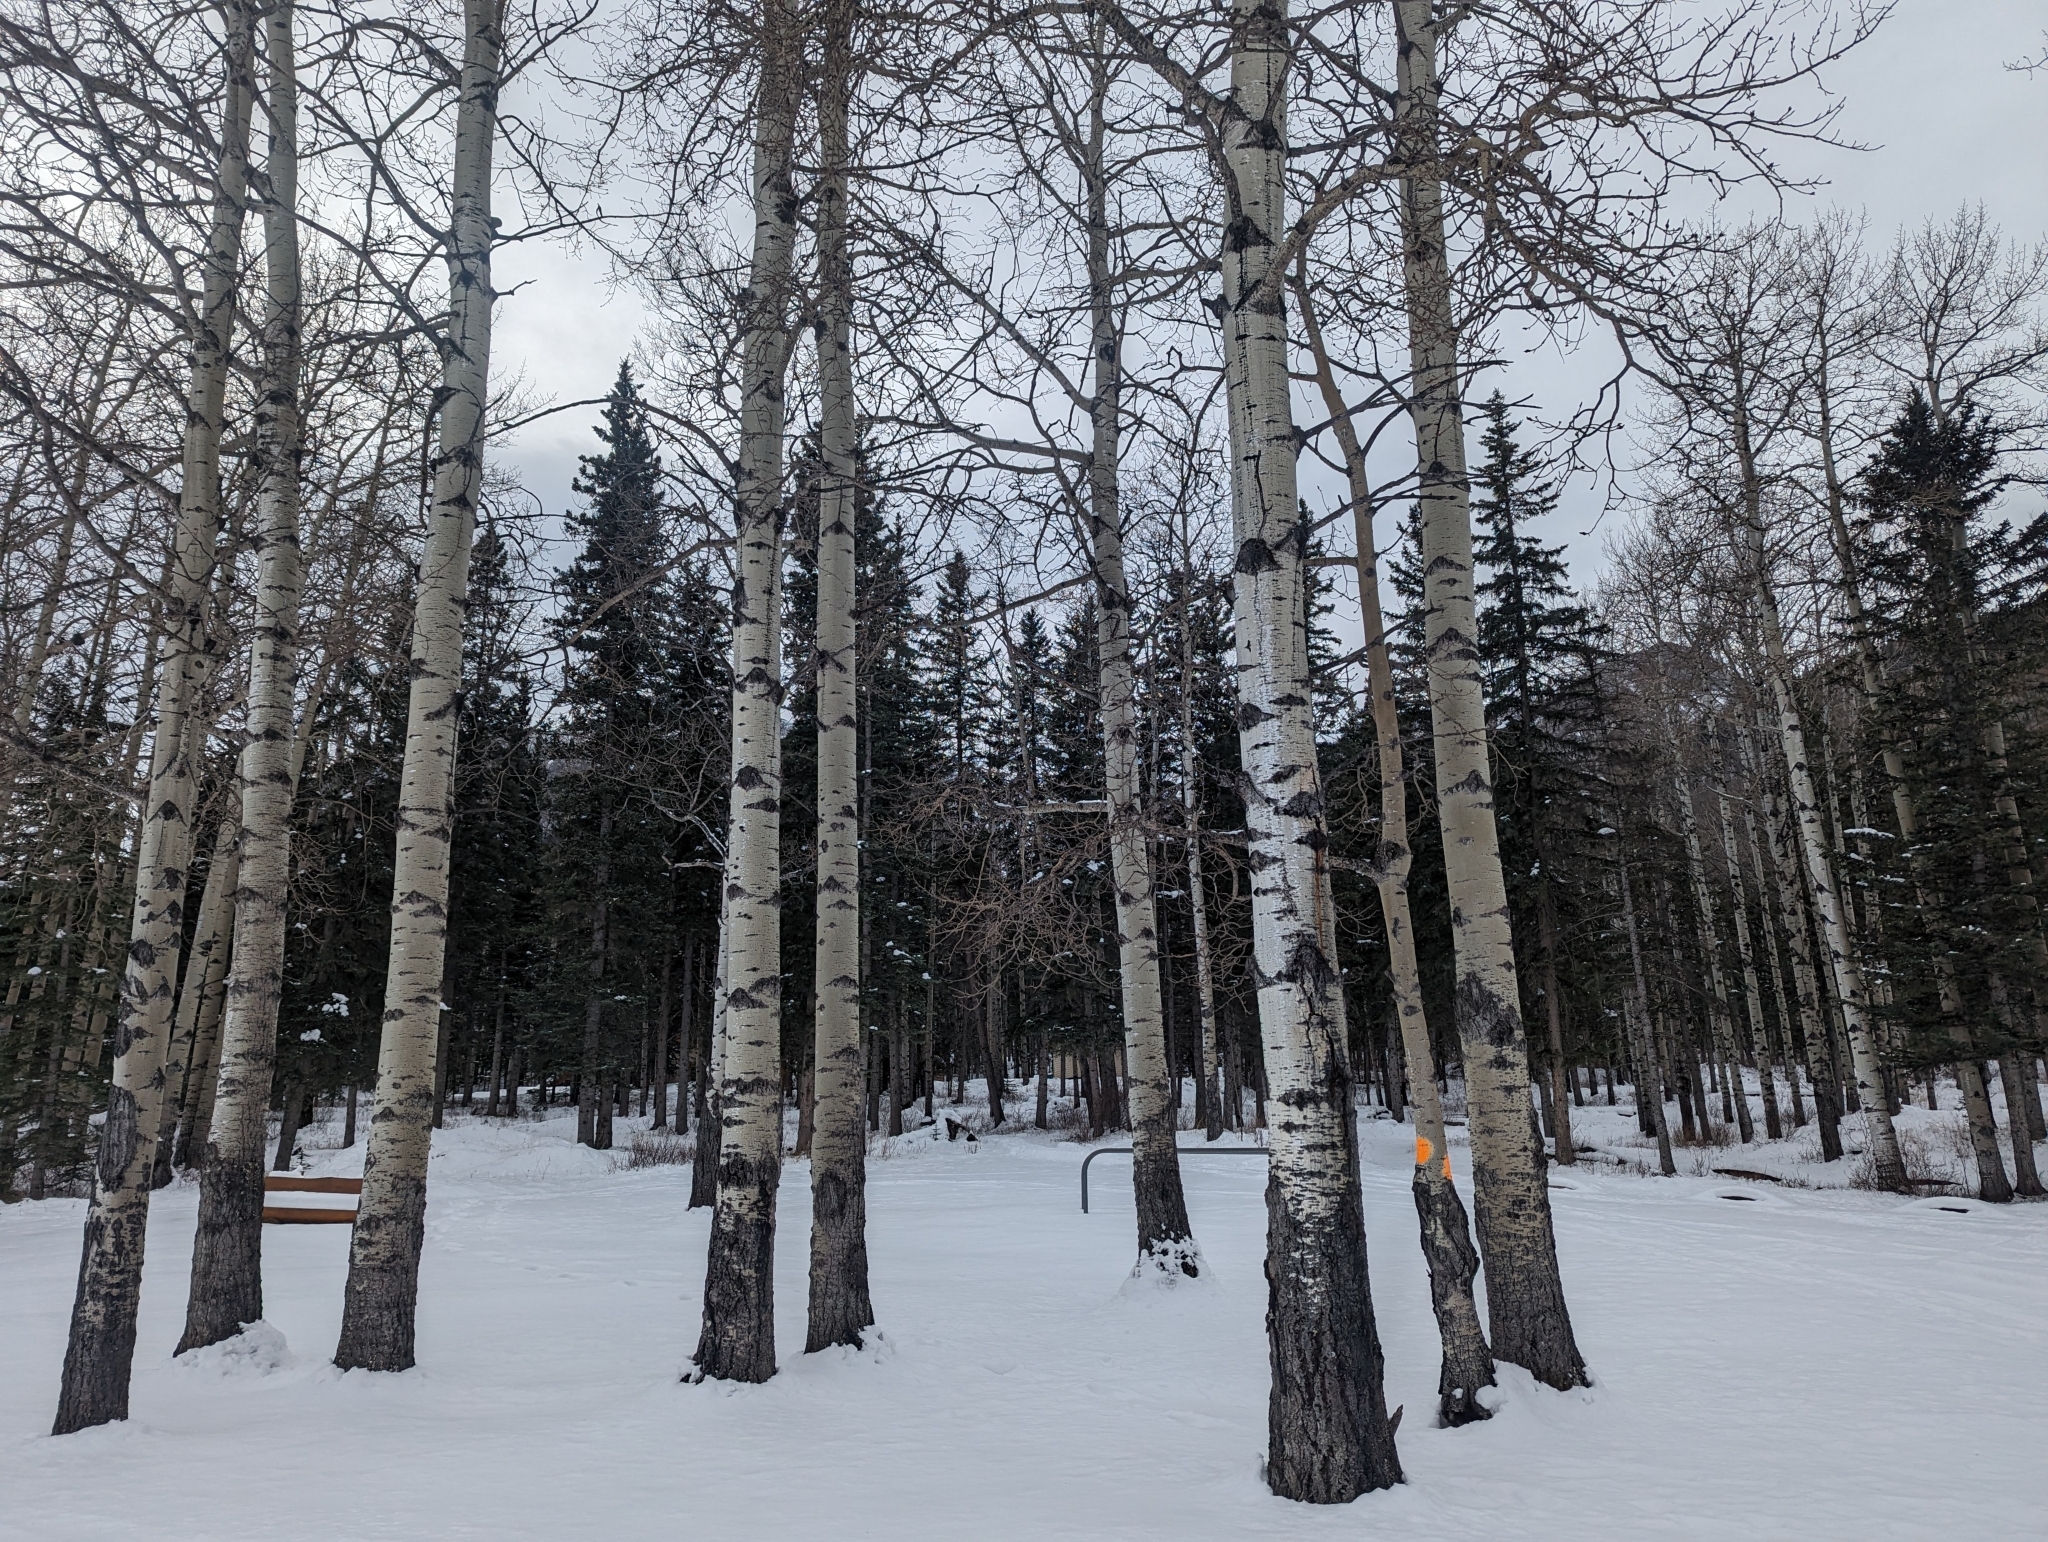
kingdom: Plantae
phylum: Tracheophyta
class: Magnoliopsida
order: Malpighiales
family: Salicaceae
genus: Populus
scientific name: Populus tremuloides
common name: Quaking aspen
